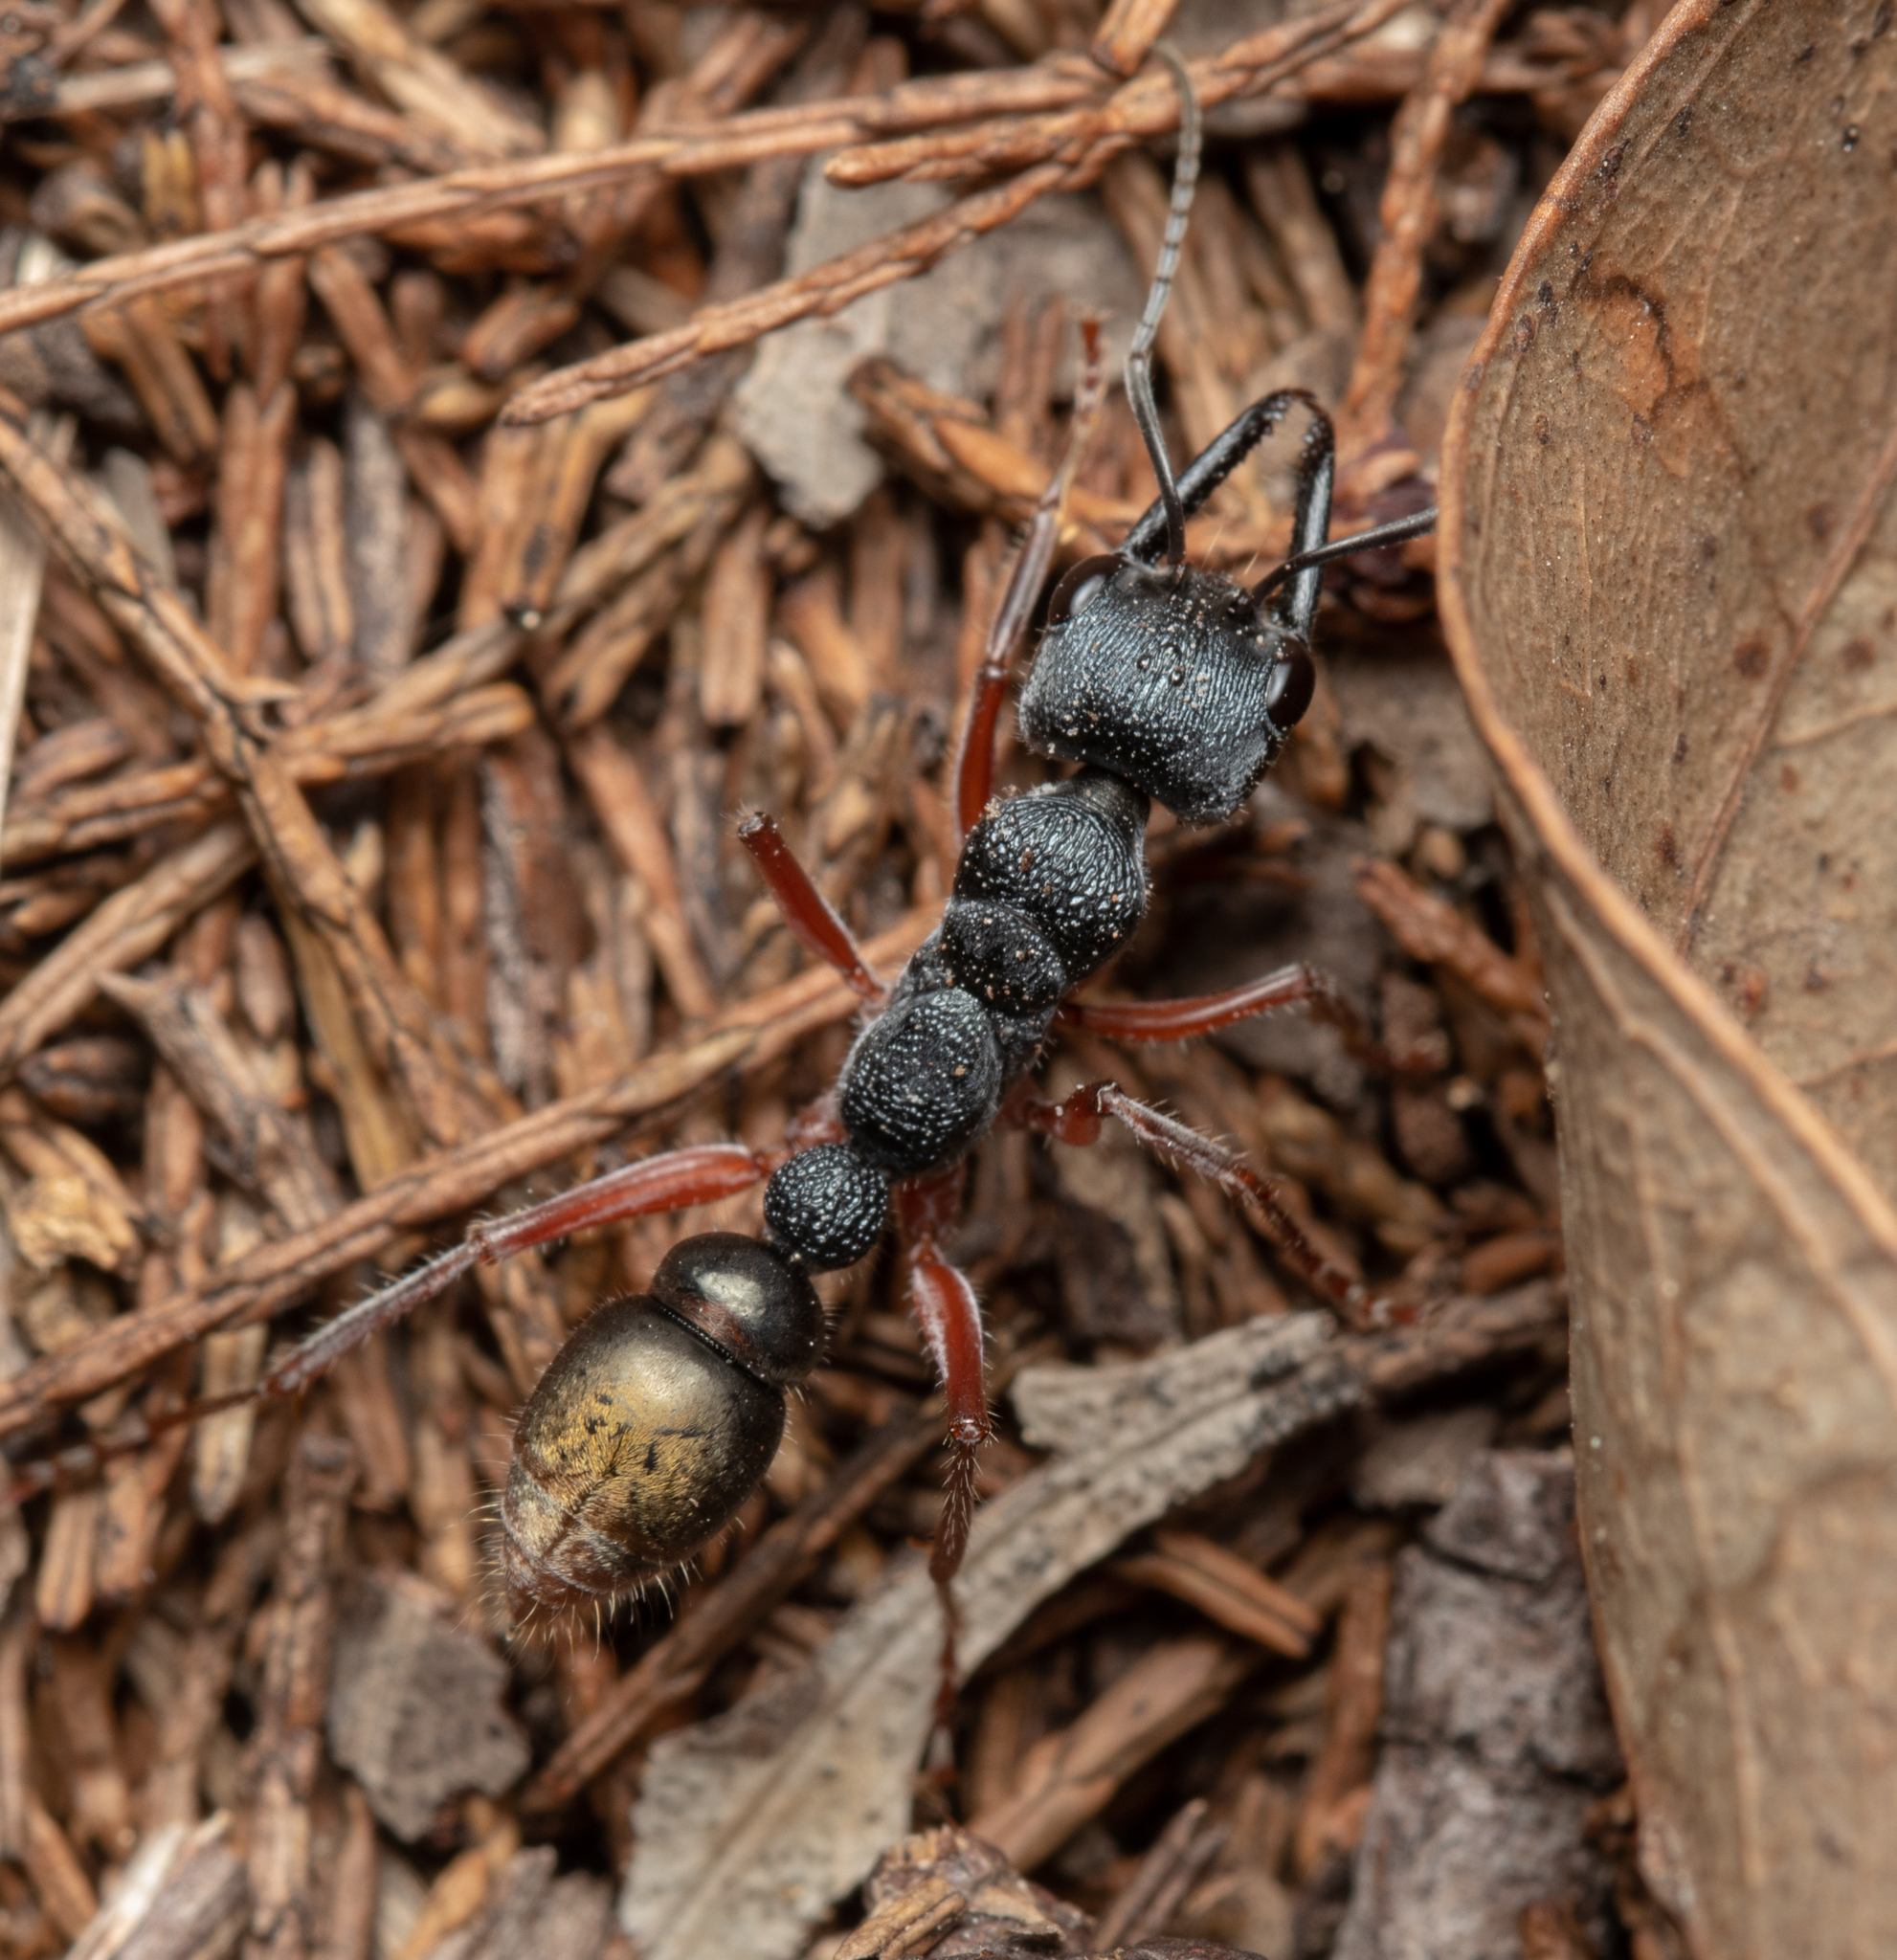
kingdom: Animalia
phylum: Arthropoda
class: Insecta
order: Hymenoptera
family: Formicidae
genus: Myrmecia
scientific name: Myrmecia fulviculis
